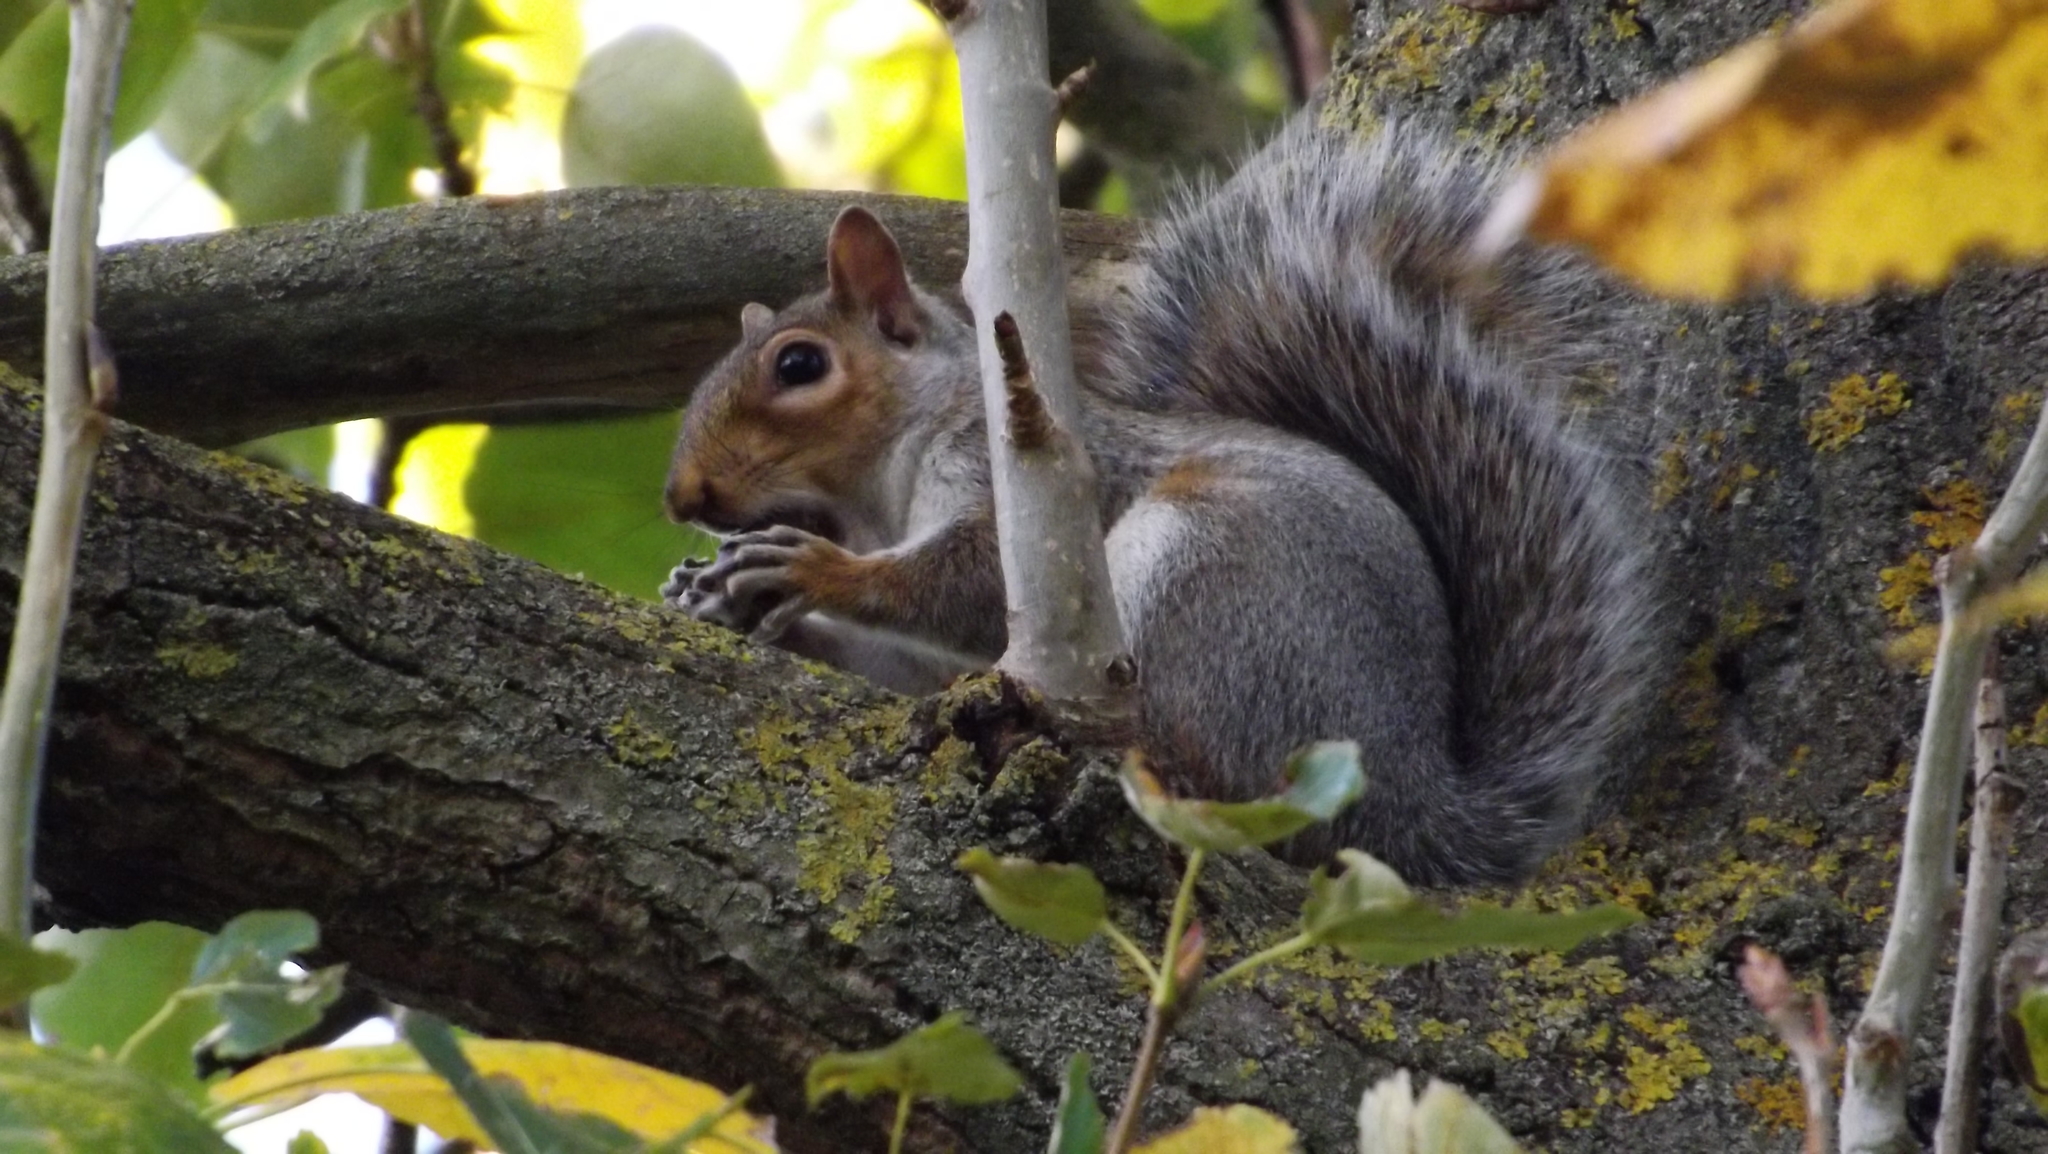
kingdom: Animalia
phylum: Chordata
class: Mammalia
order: Rodentia
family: Sciuridae
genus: Sciurus
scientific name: Sciurus carolinensis
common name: Eastern gray squirrel
